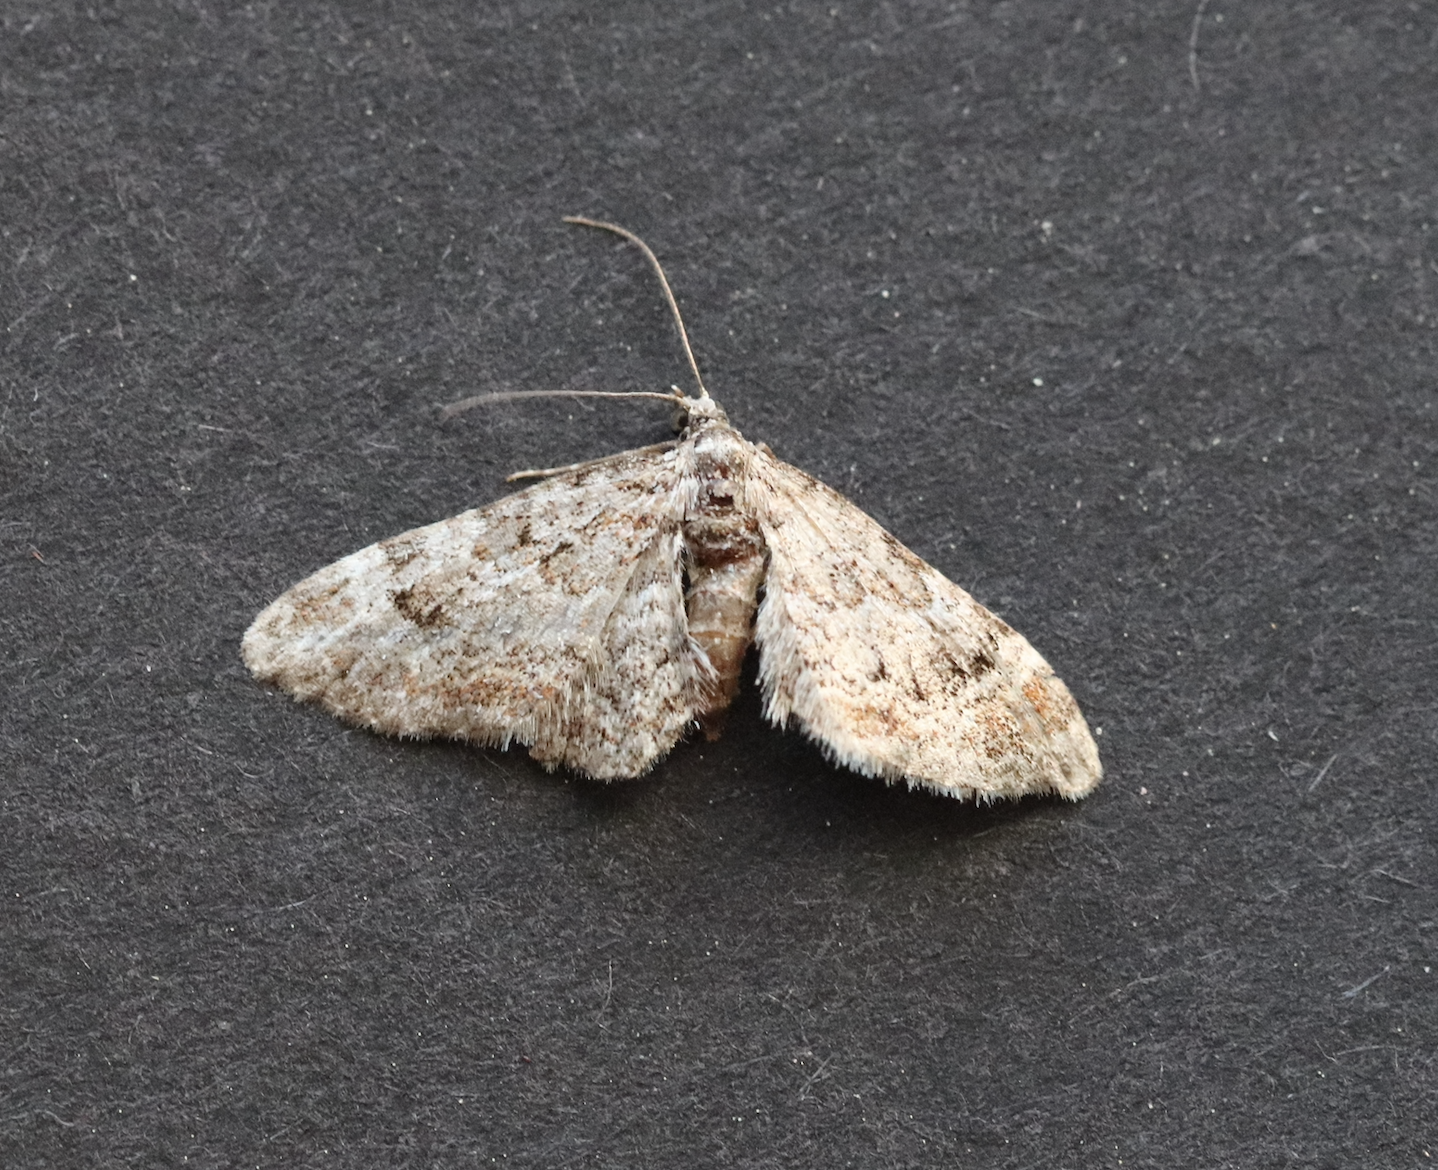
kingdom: Animalia
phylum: Arthropoda
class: Insecta
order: Lepidoptera
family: Geometridae
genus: Gymnoscelis
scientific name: Gymnoscelis rufifasciata
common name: Double-striped pug
